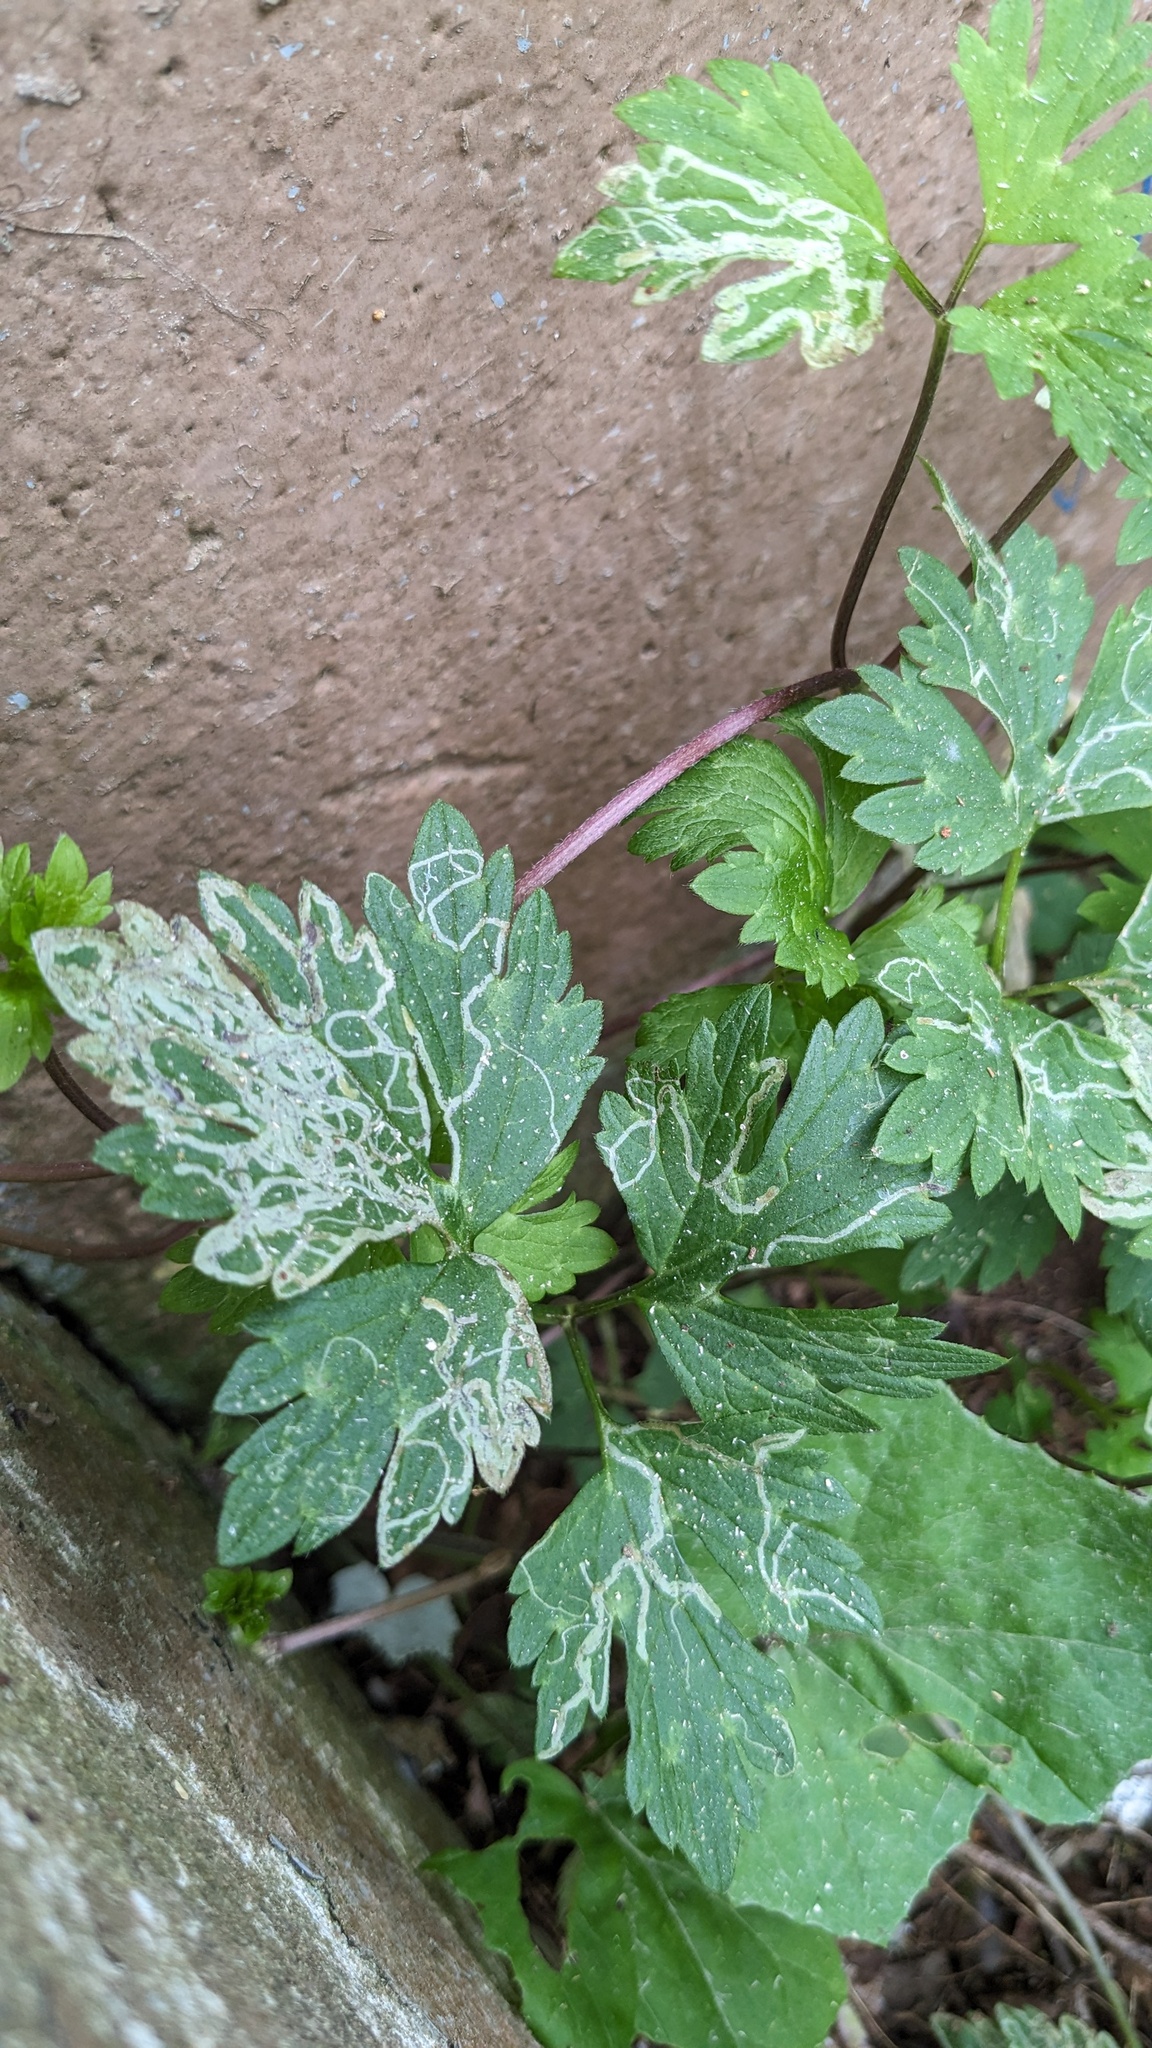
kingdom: Animalia
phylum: Arthropoda
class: Insecta
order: Diptera
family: Agromyzidae
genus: Phytomyza
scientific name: Phytomyza ranunculi
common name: Leaf-miner fly
